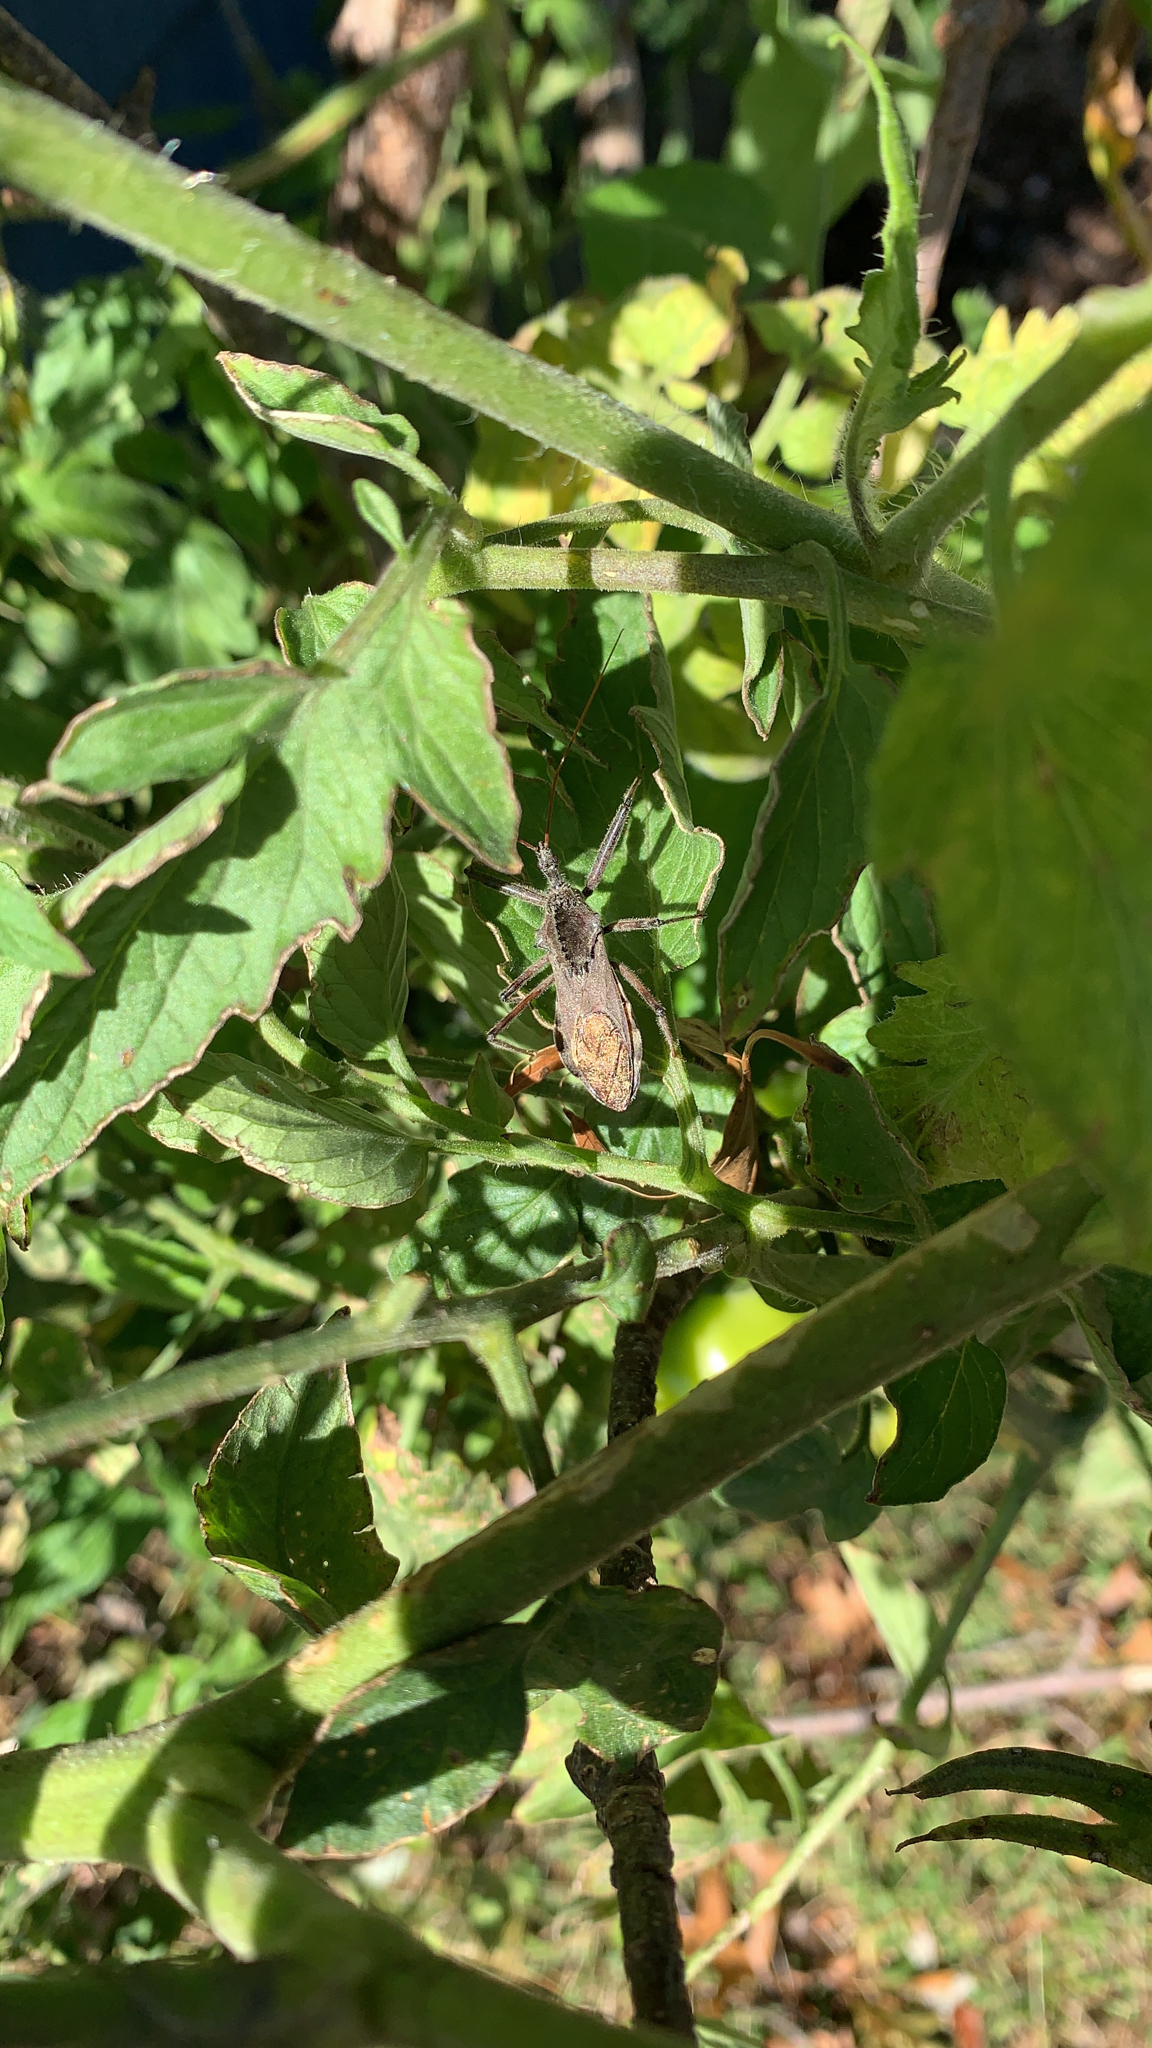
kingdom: Animalia
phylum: Arthropoda
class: Insecta
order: Hemiptera
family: Reduviidae
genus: Arilus
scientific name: Arilus cristatus
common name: North american wheel bug
